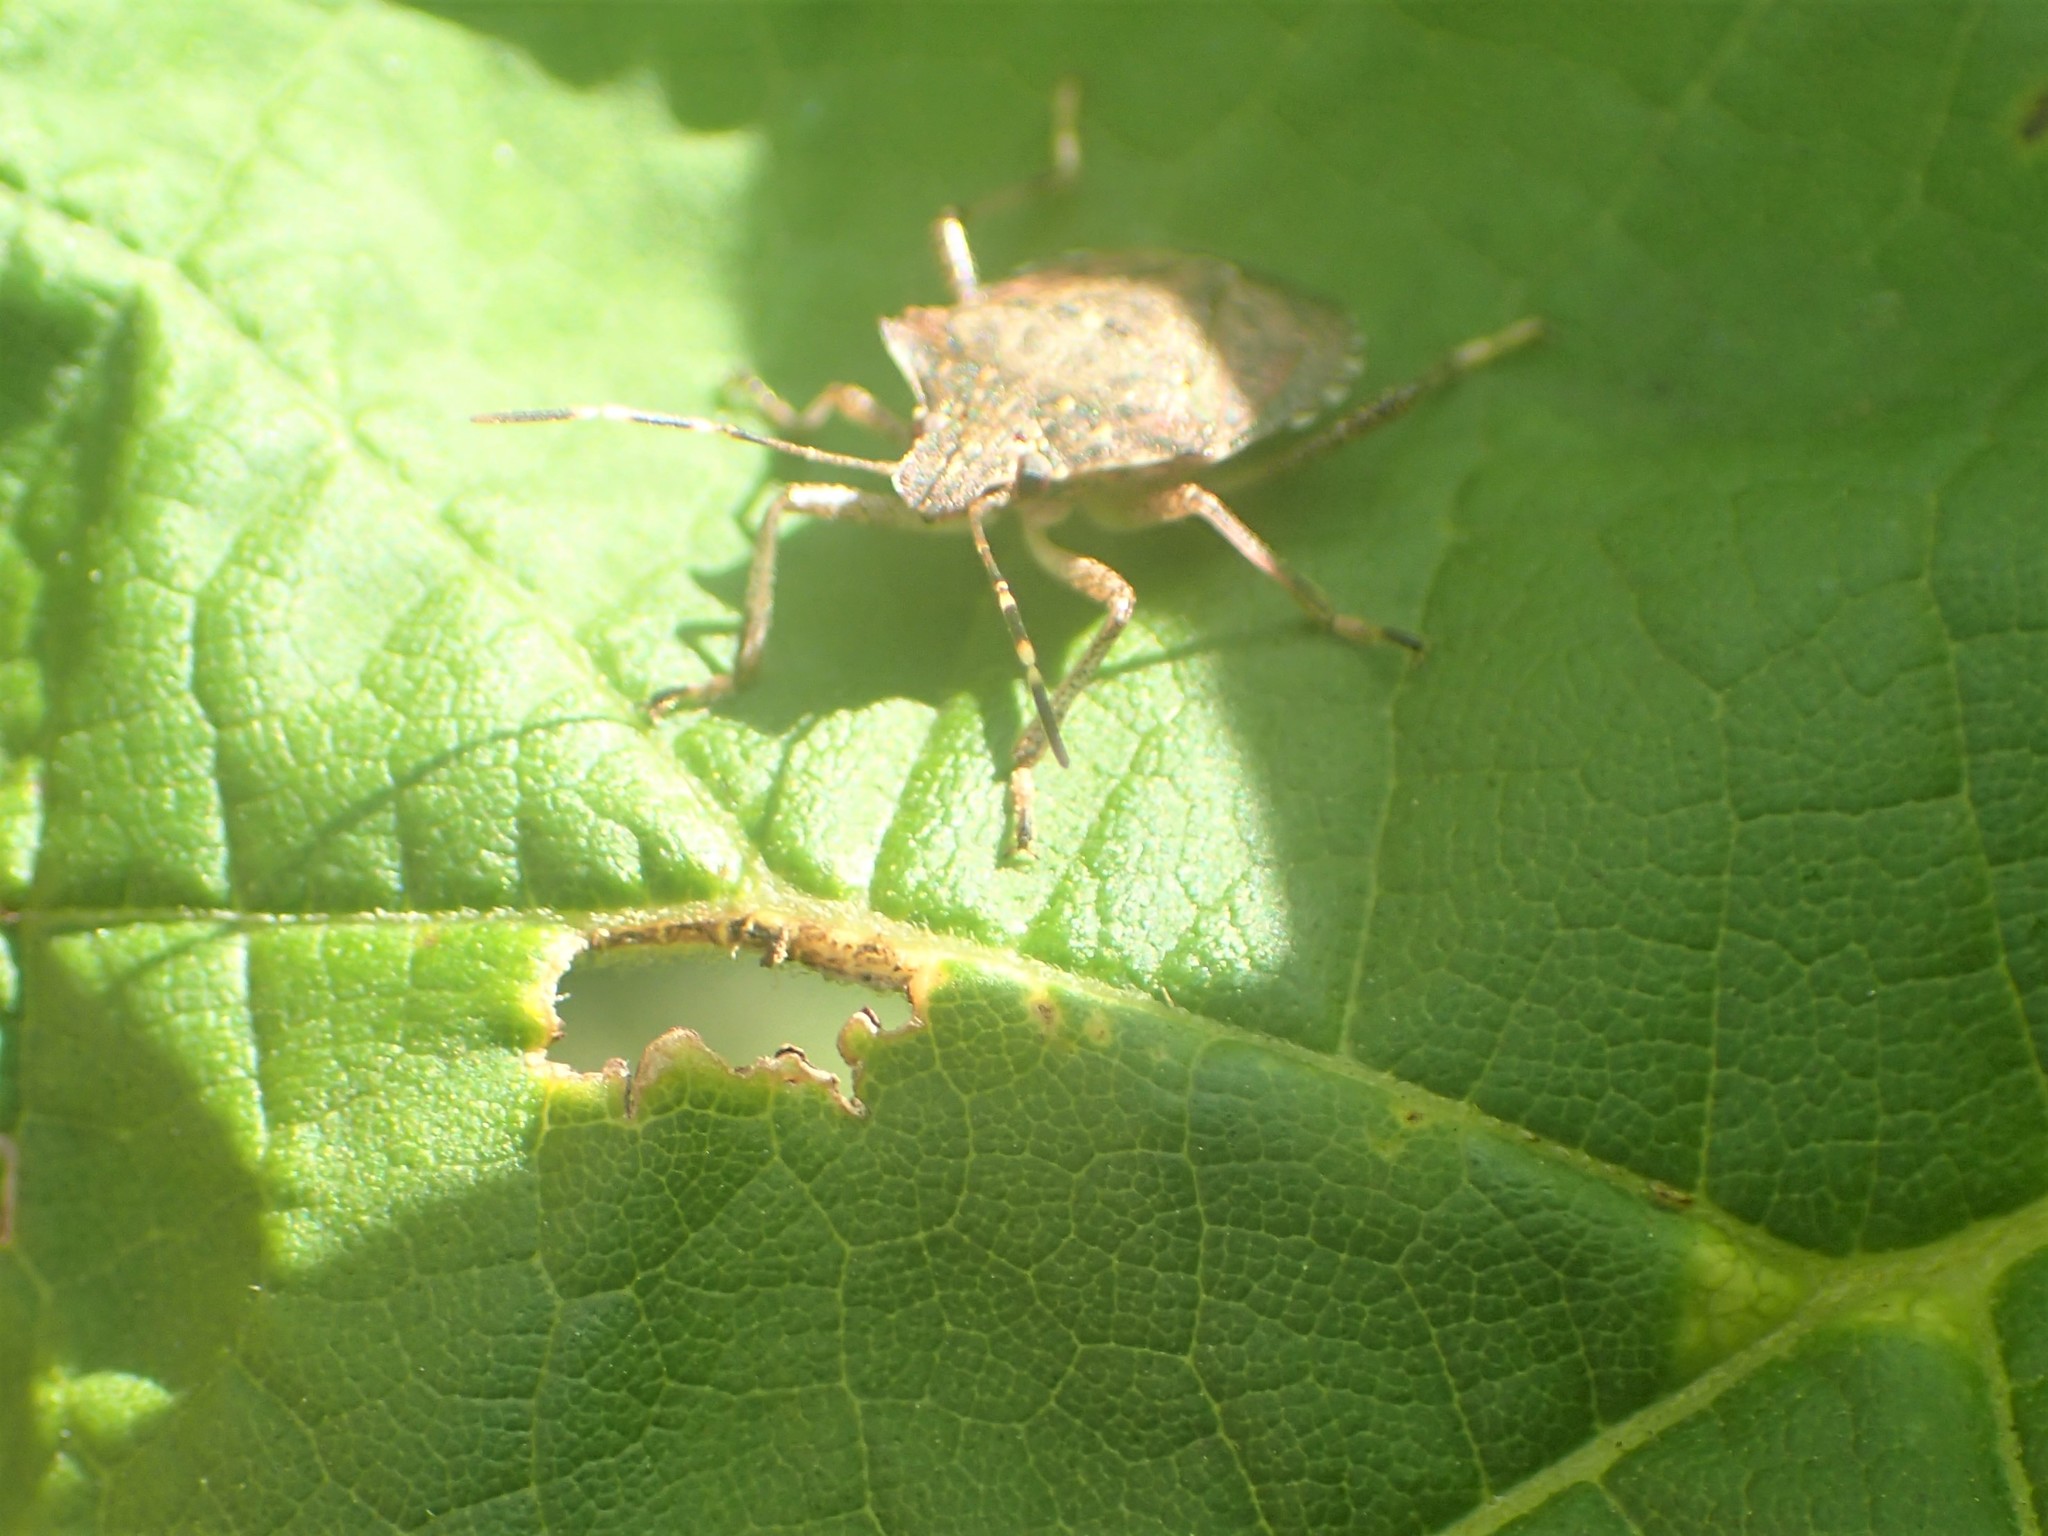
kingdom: Animalia
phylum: Arthropoda
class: Insecta
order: Hemiptera
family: Pentatomidae
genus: Halyomorpha
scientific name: Halyomorpha halys
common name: Brown marmorated stink bug
